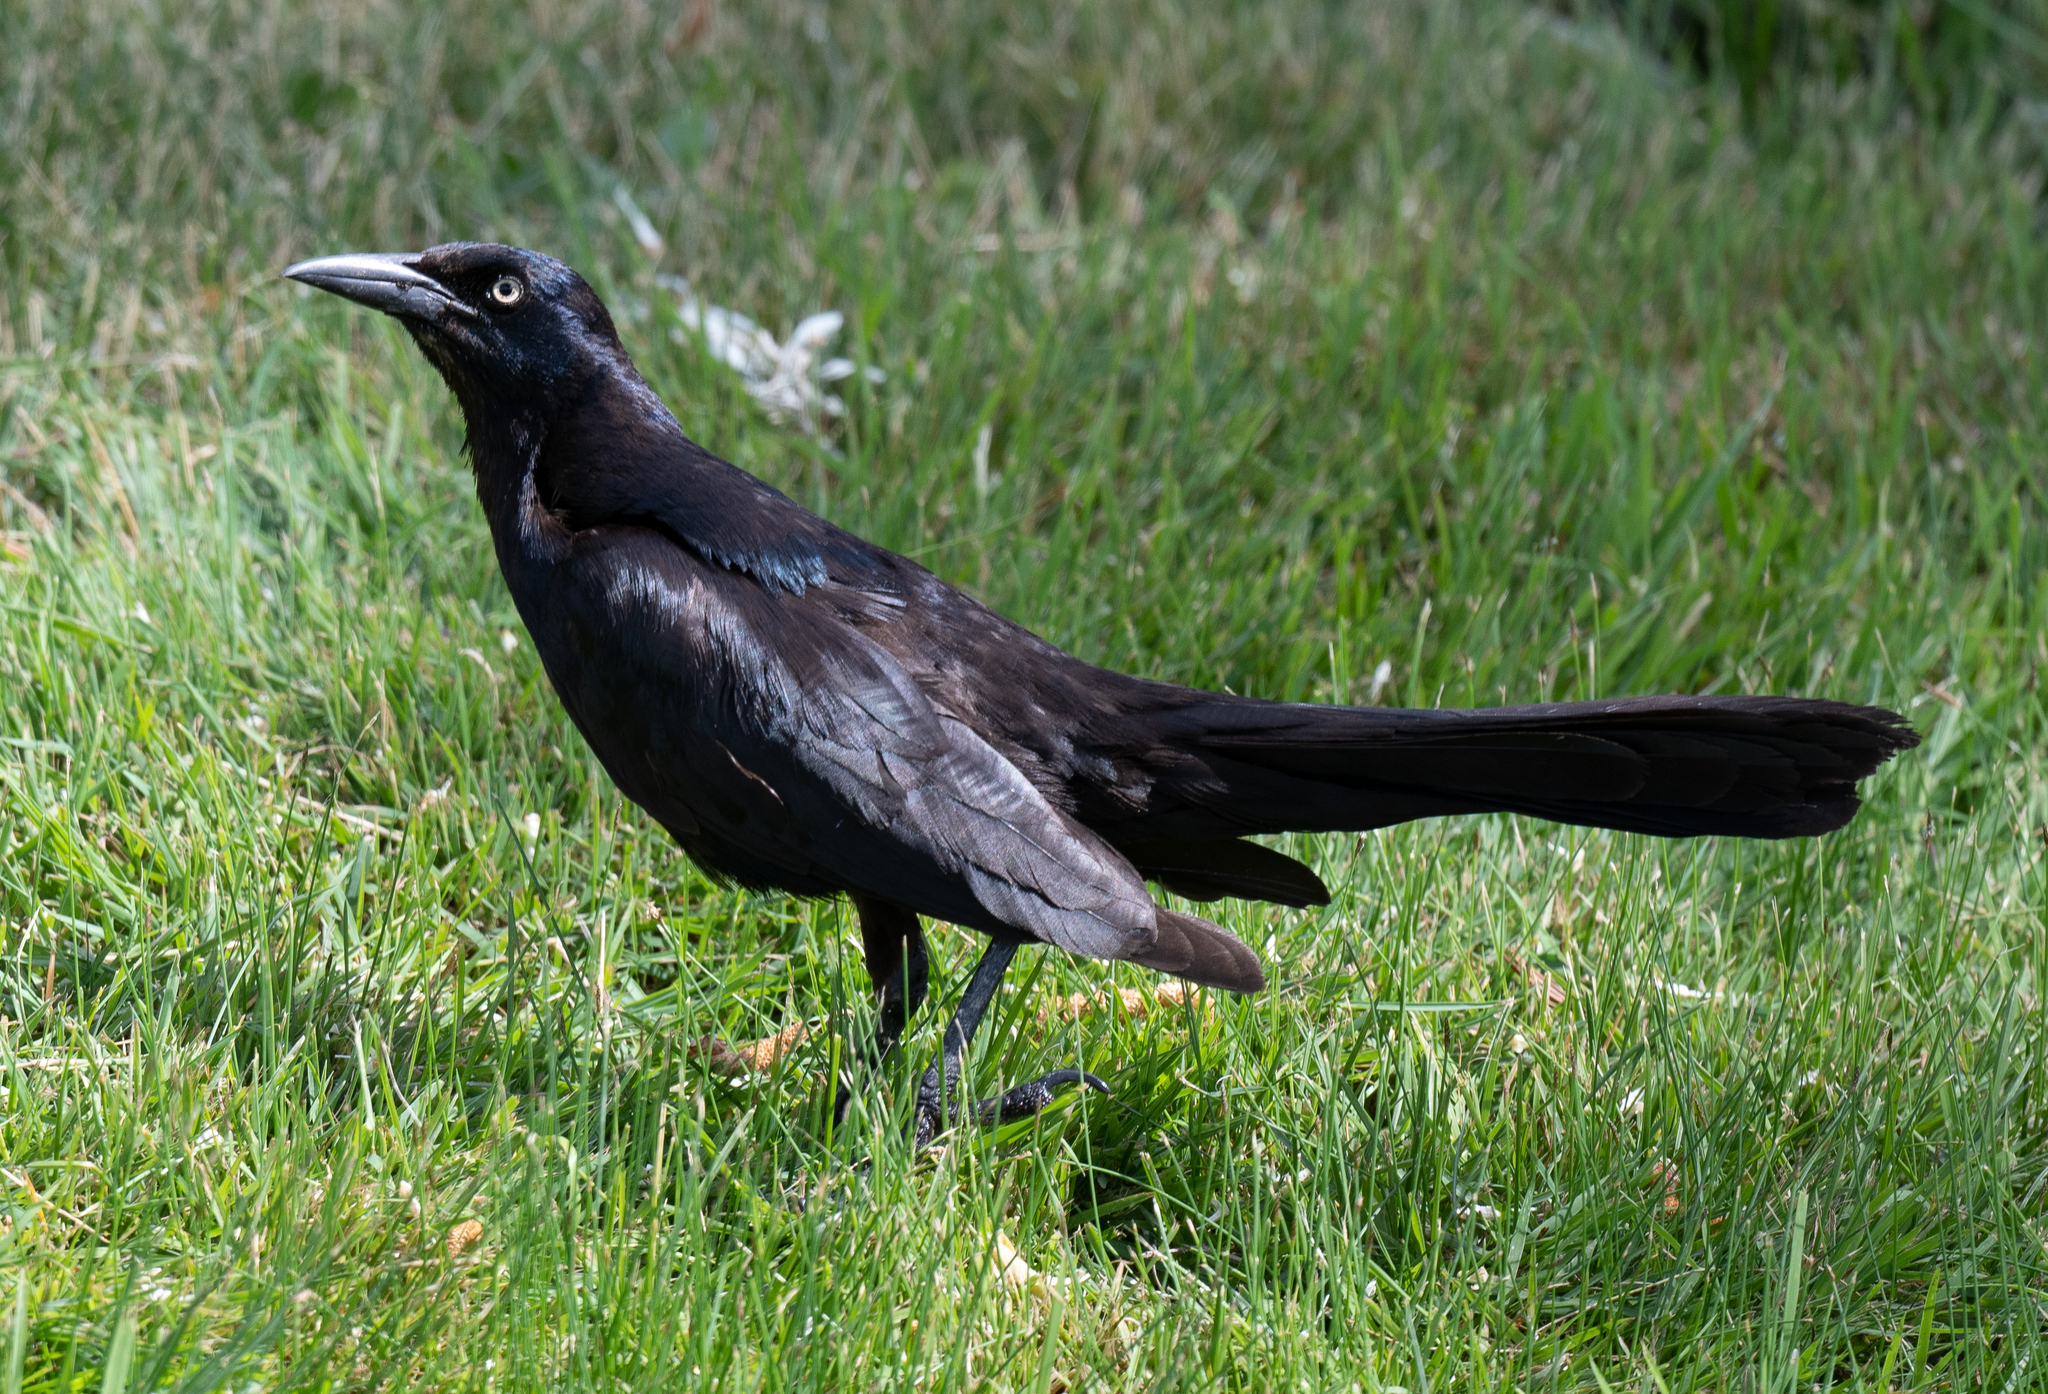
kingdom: Animalia
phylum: Chordata
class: Aves
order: Passeriformes
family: Icteridae
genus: Quiscalus
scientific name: Quiscalus mexicanus
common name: Great-tailed grackle
